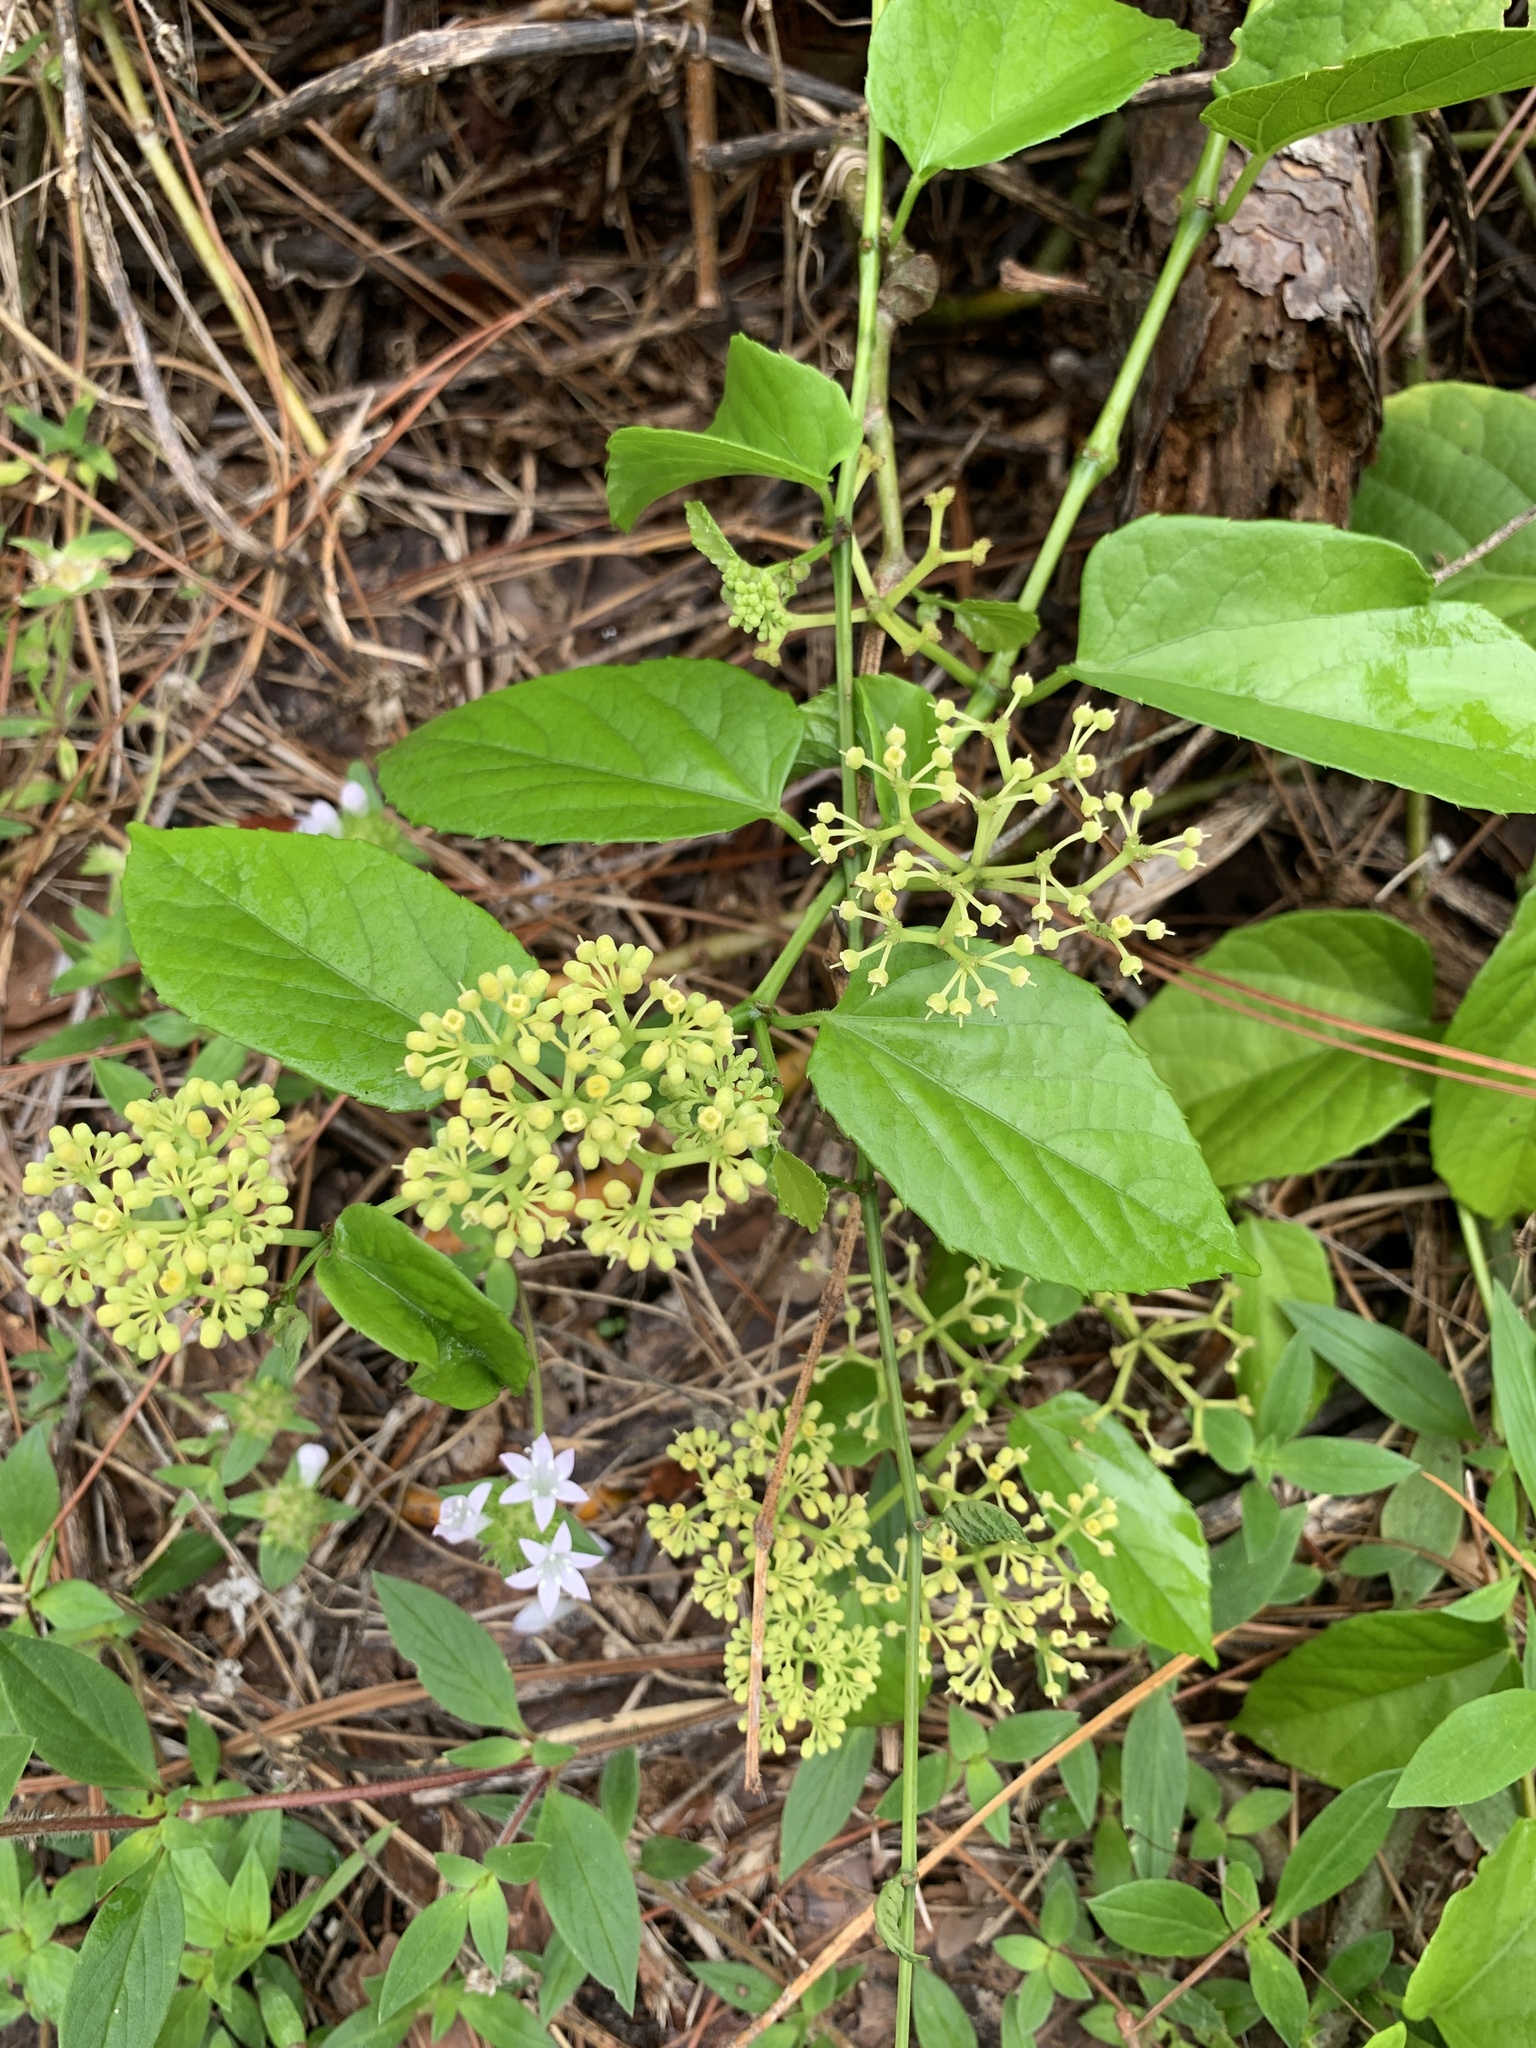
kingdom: Plantae
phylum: Tracheophyta
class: Magnoliopsida
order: Vitales
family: Vitaceae
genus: Cissus
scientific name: Cissus verticillata
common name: Princess vine
